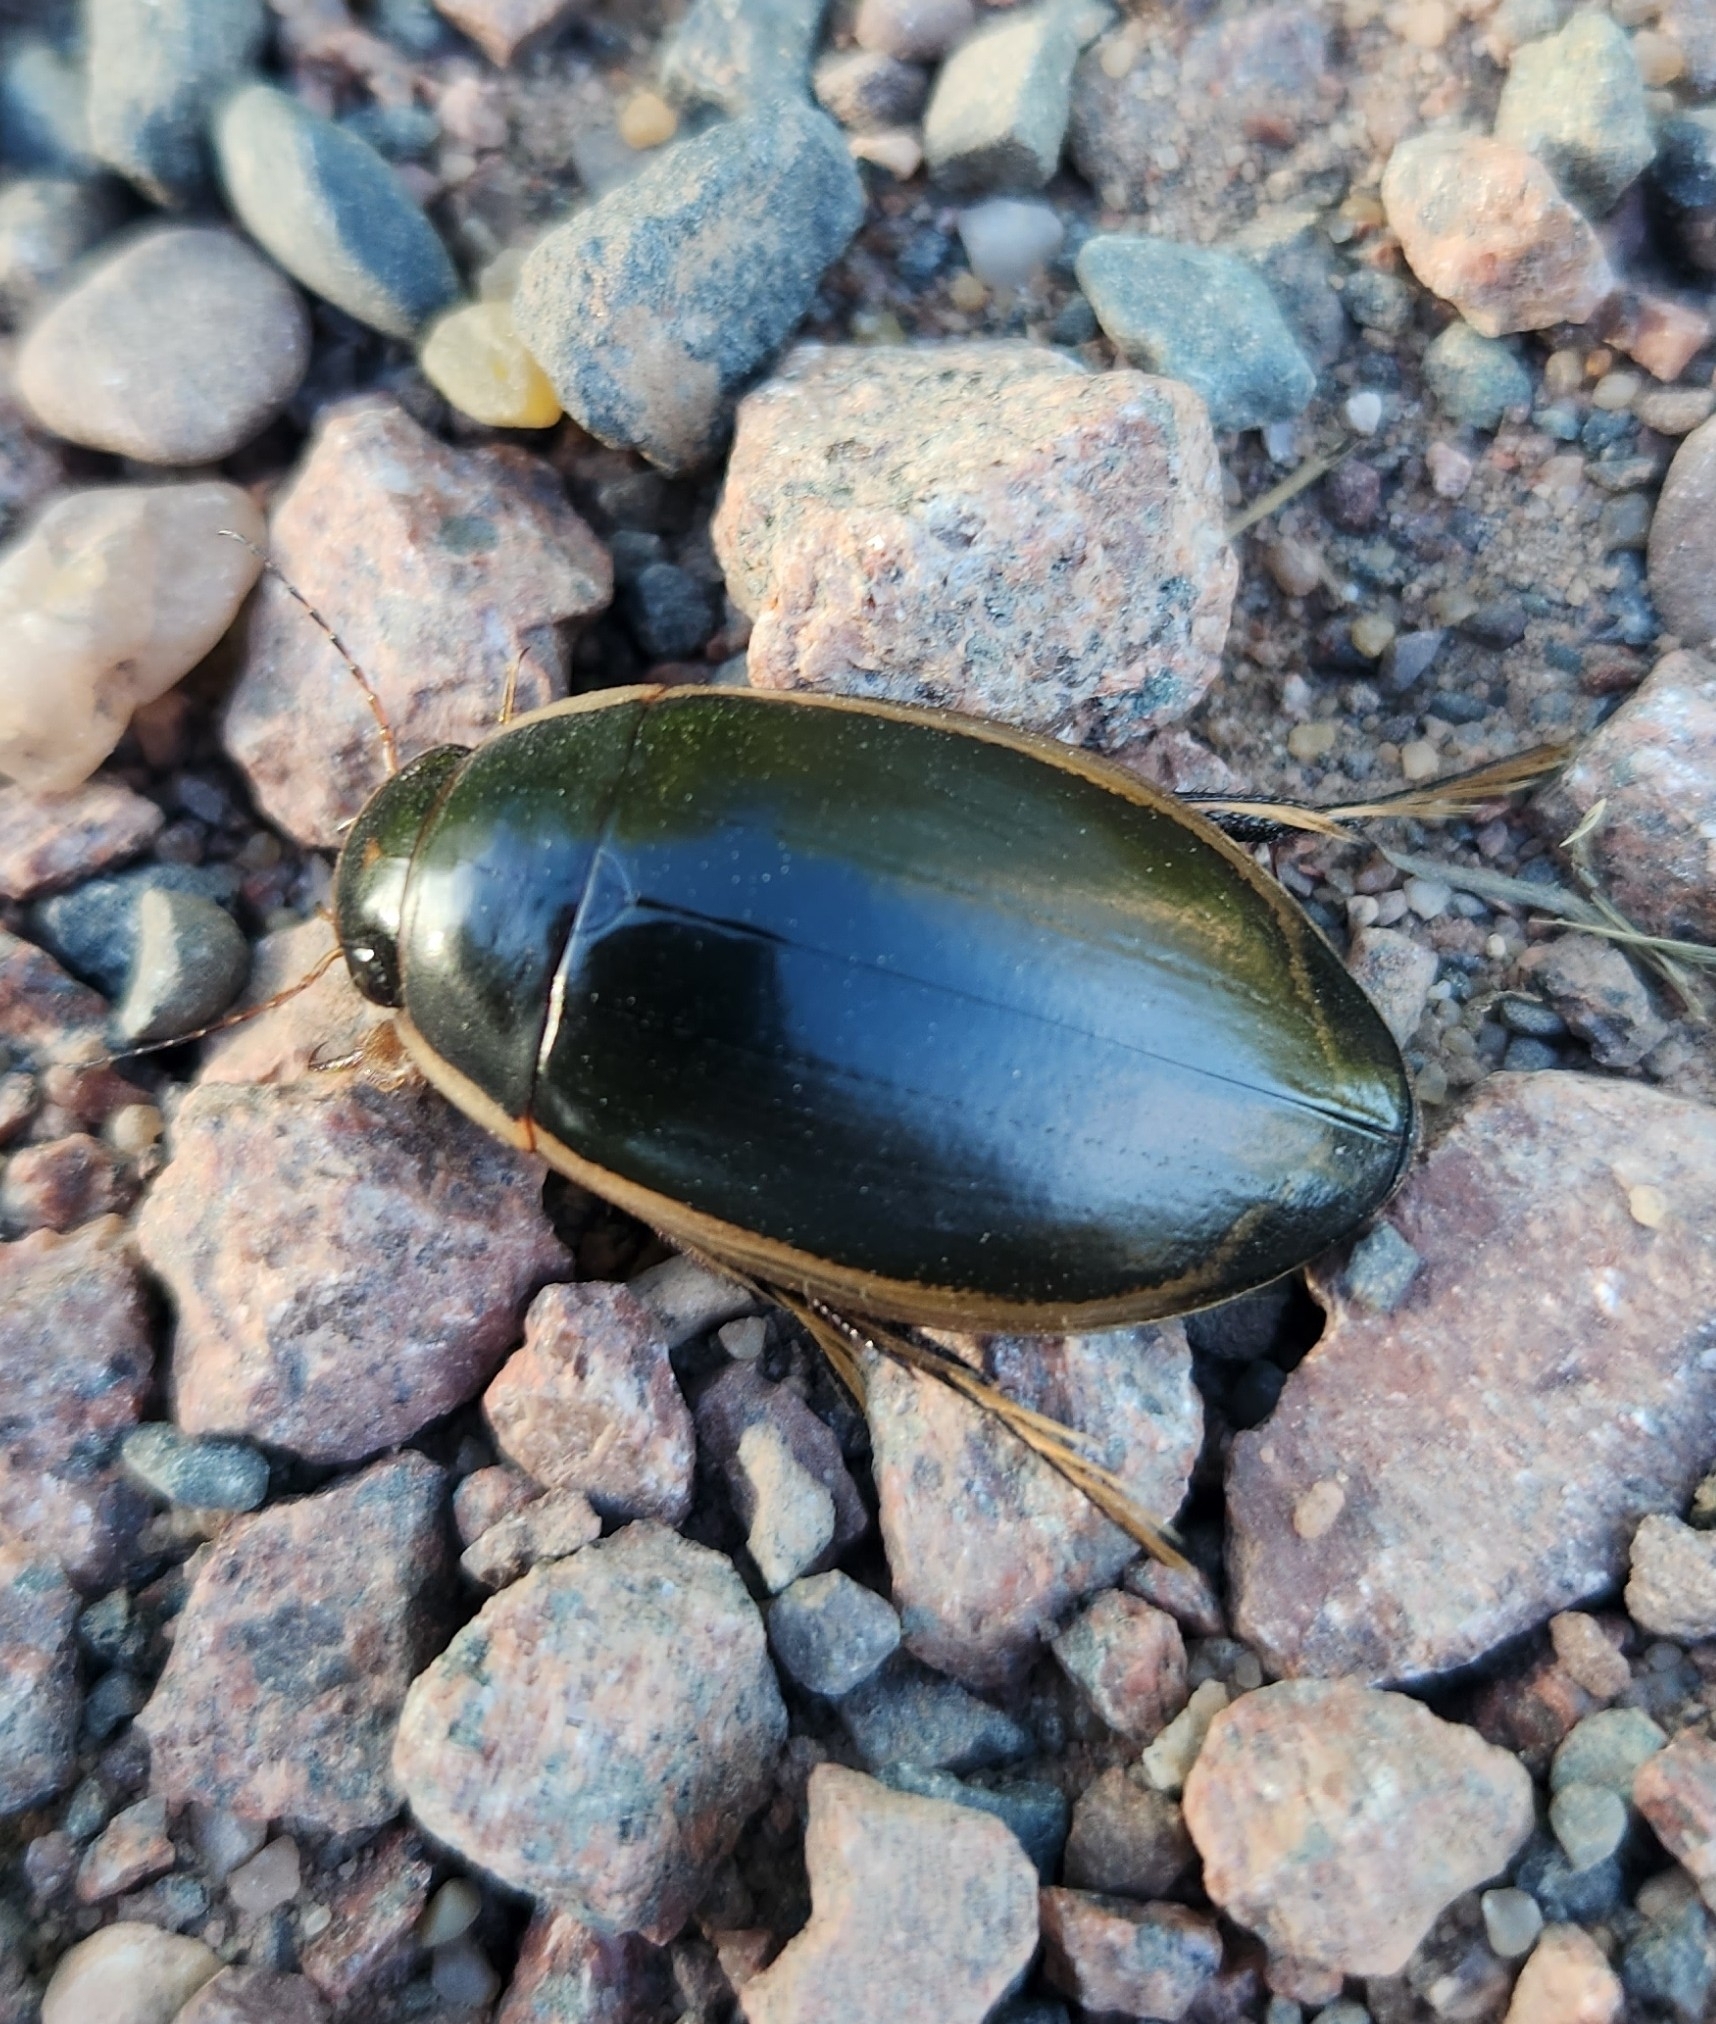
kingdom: Animalia
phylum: Arthropoda
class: Insecta
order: Coleoptera
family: Dytiscidae
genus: Dytiscus
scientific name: Dytiscus verticalis
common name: Vertical diving beetle
